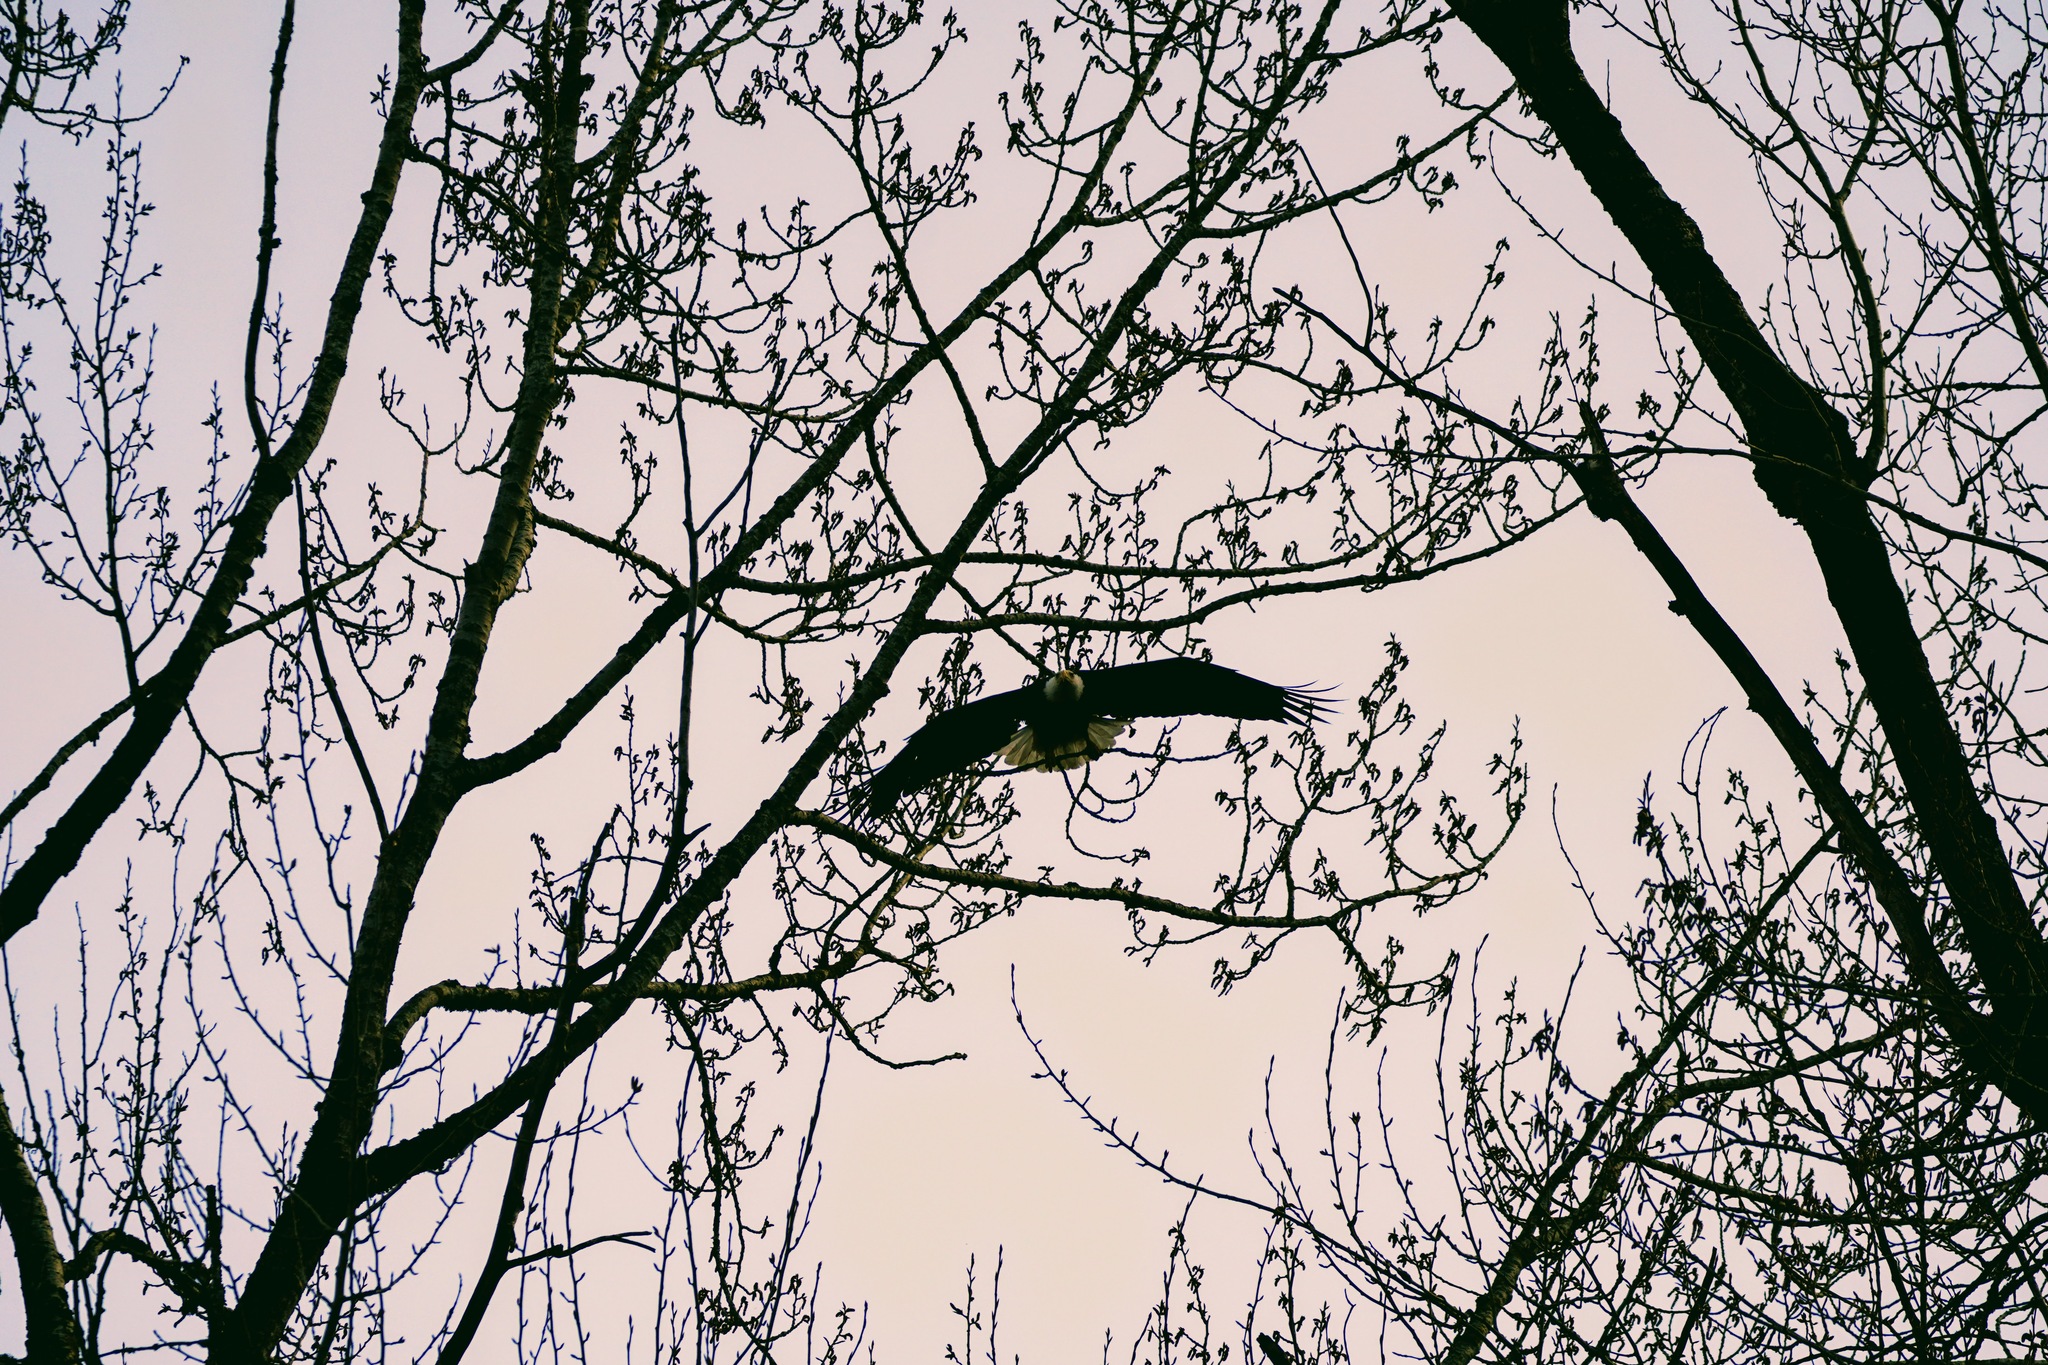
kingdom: Animalia
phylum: Chordata
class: Aves
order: Accipitriformes
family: Accipitridae
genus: Haliaeetus
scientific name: Haliaeetus leucocephalus
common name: Bald eagle
